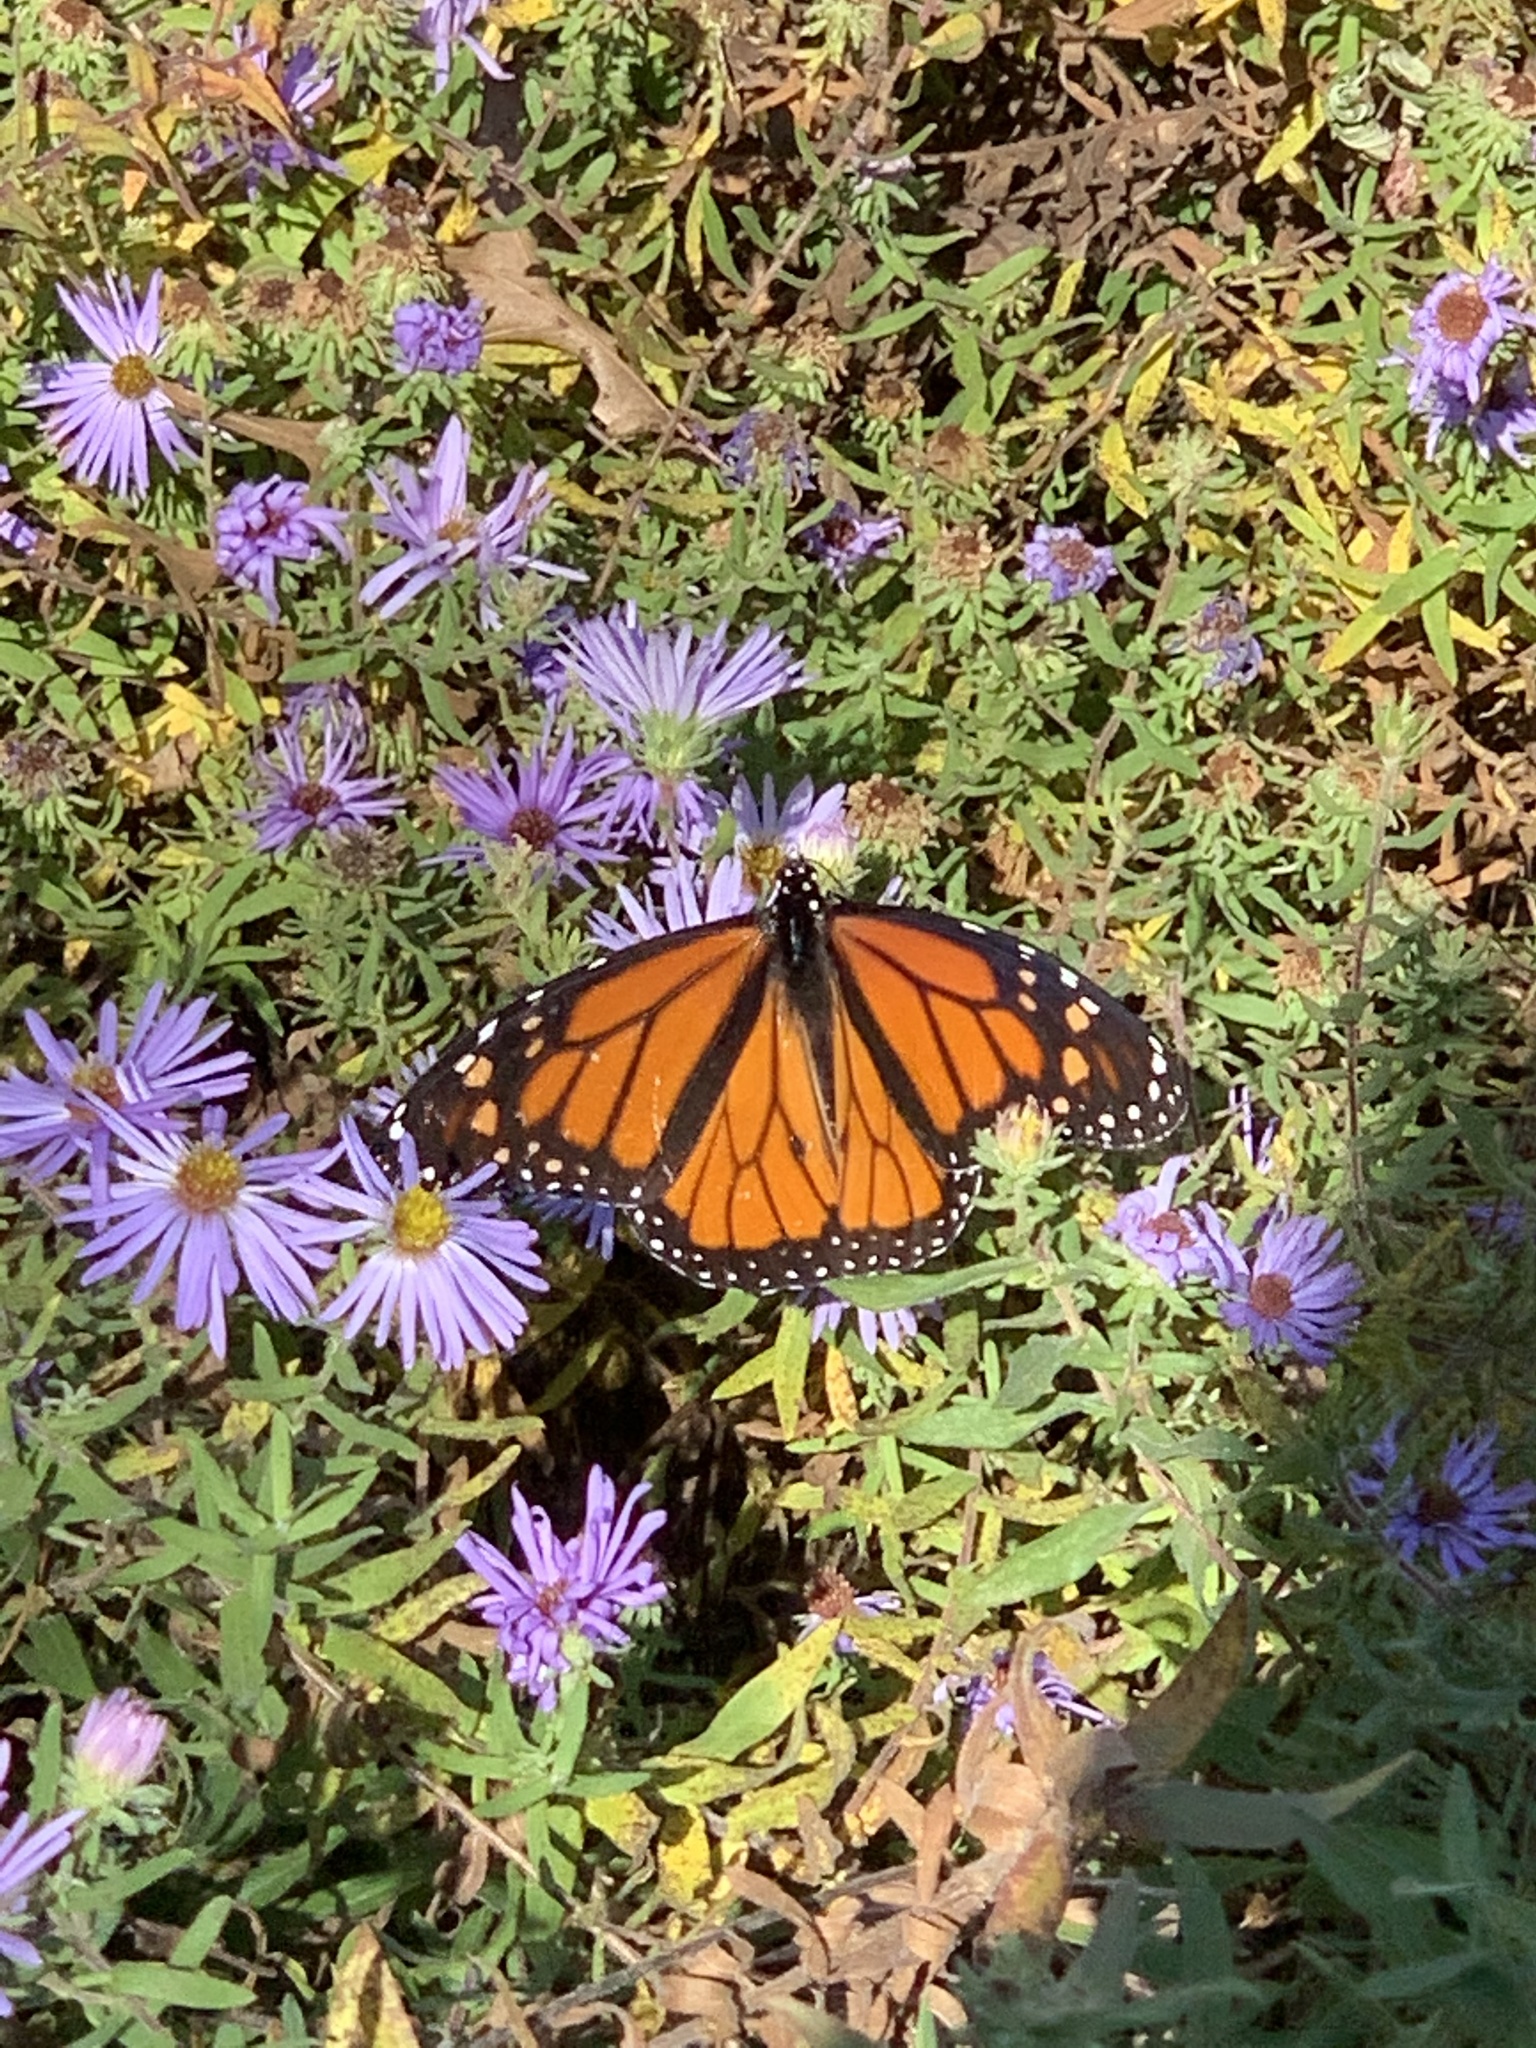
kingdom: Animalia
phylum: Arthropoda
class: Insecta
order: Lepidoptera
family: Nymphalidae
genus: Danaus
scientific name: Danaus plexippus
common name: Monarch
